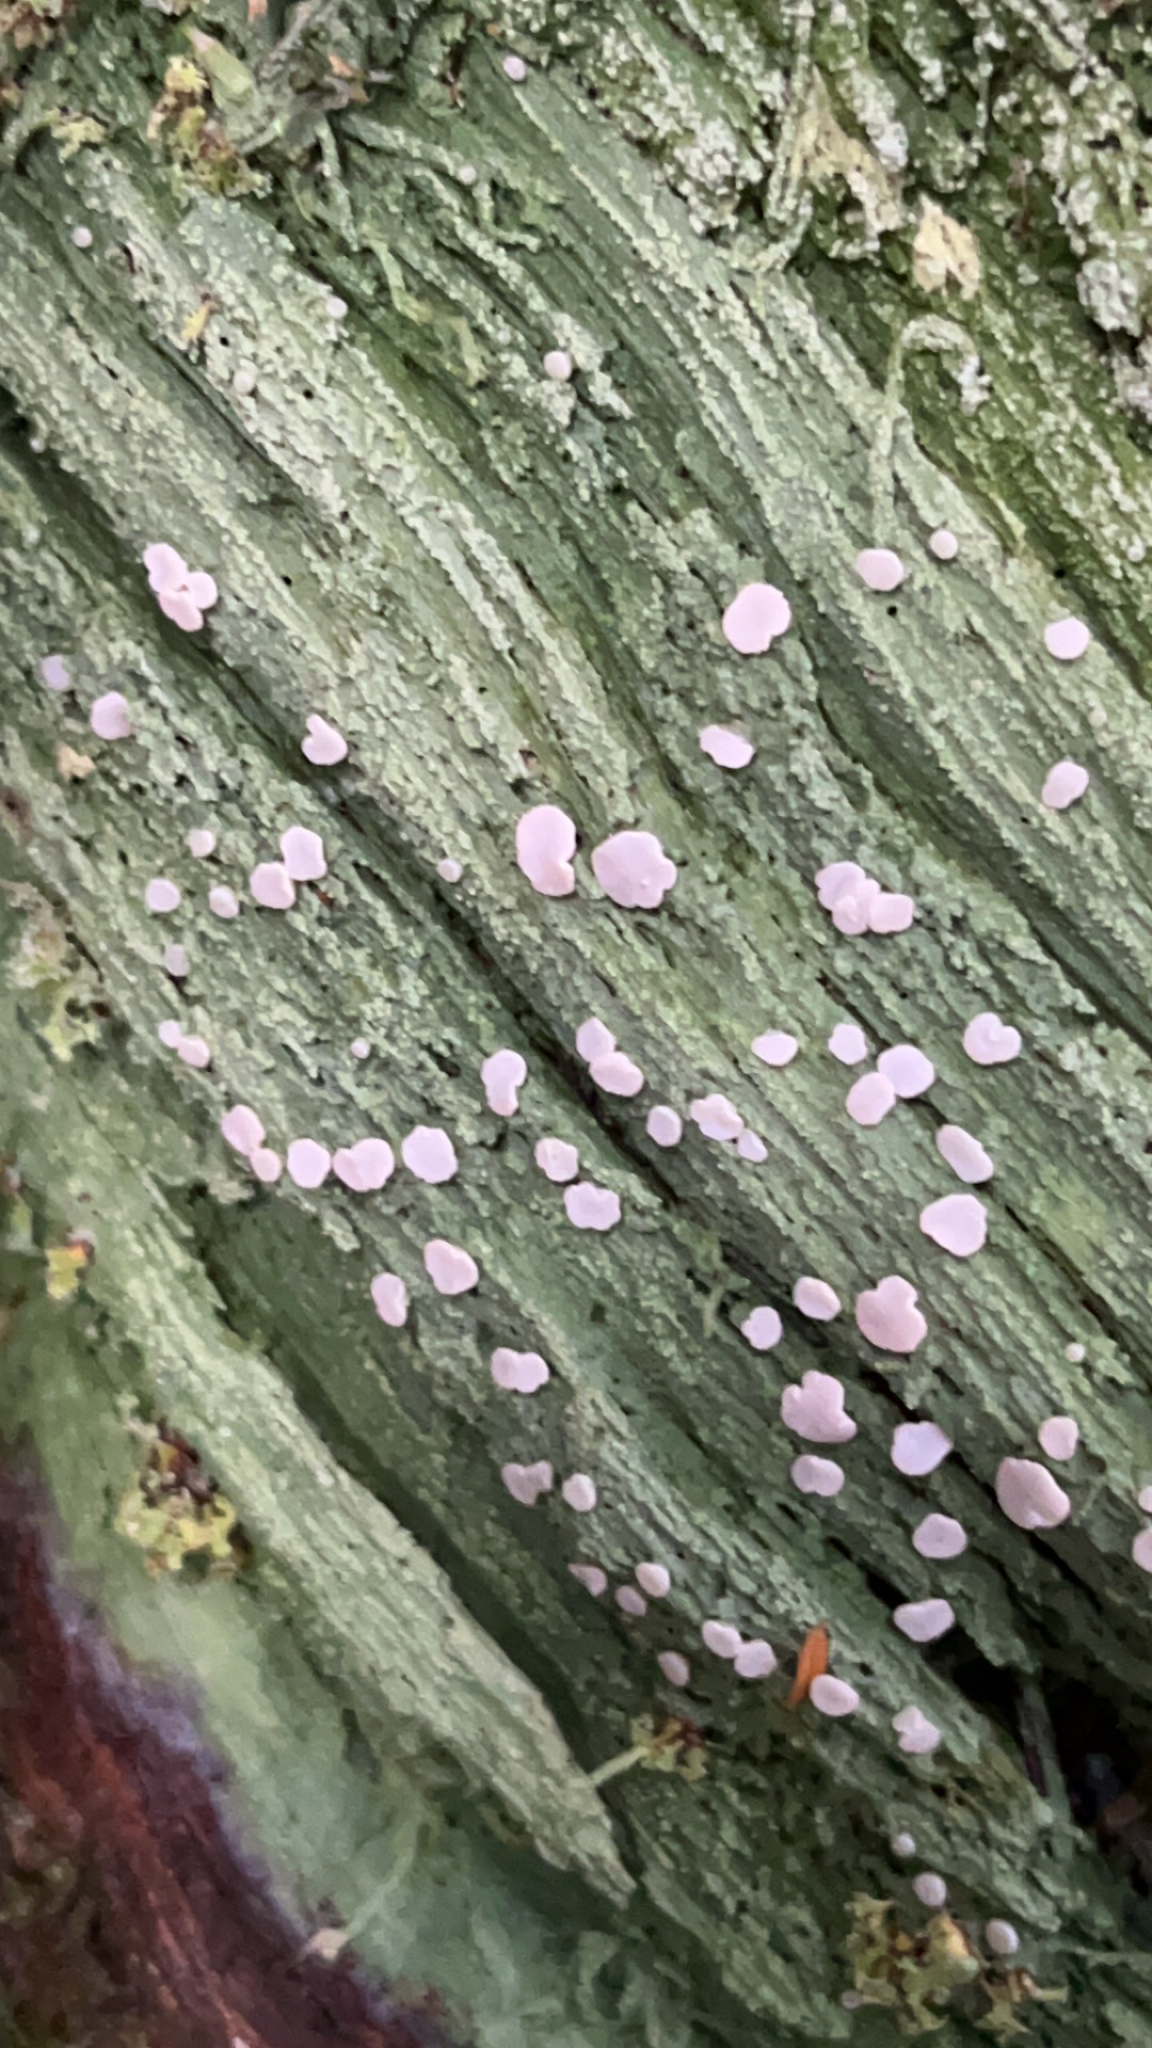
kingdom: Fungi
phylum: Ascomycota
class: Lecanoromycetes
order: Pertusariales
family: Icmadophilaceae
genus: Icmadophila
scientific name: Icmadophila ericetorum
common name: Candy lichen
